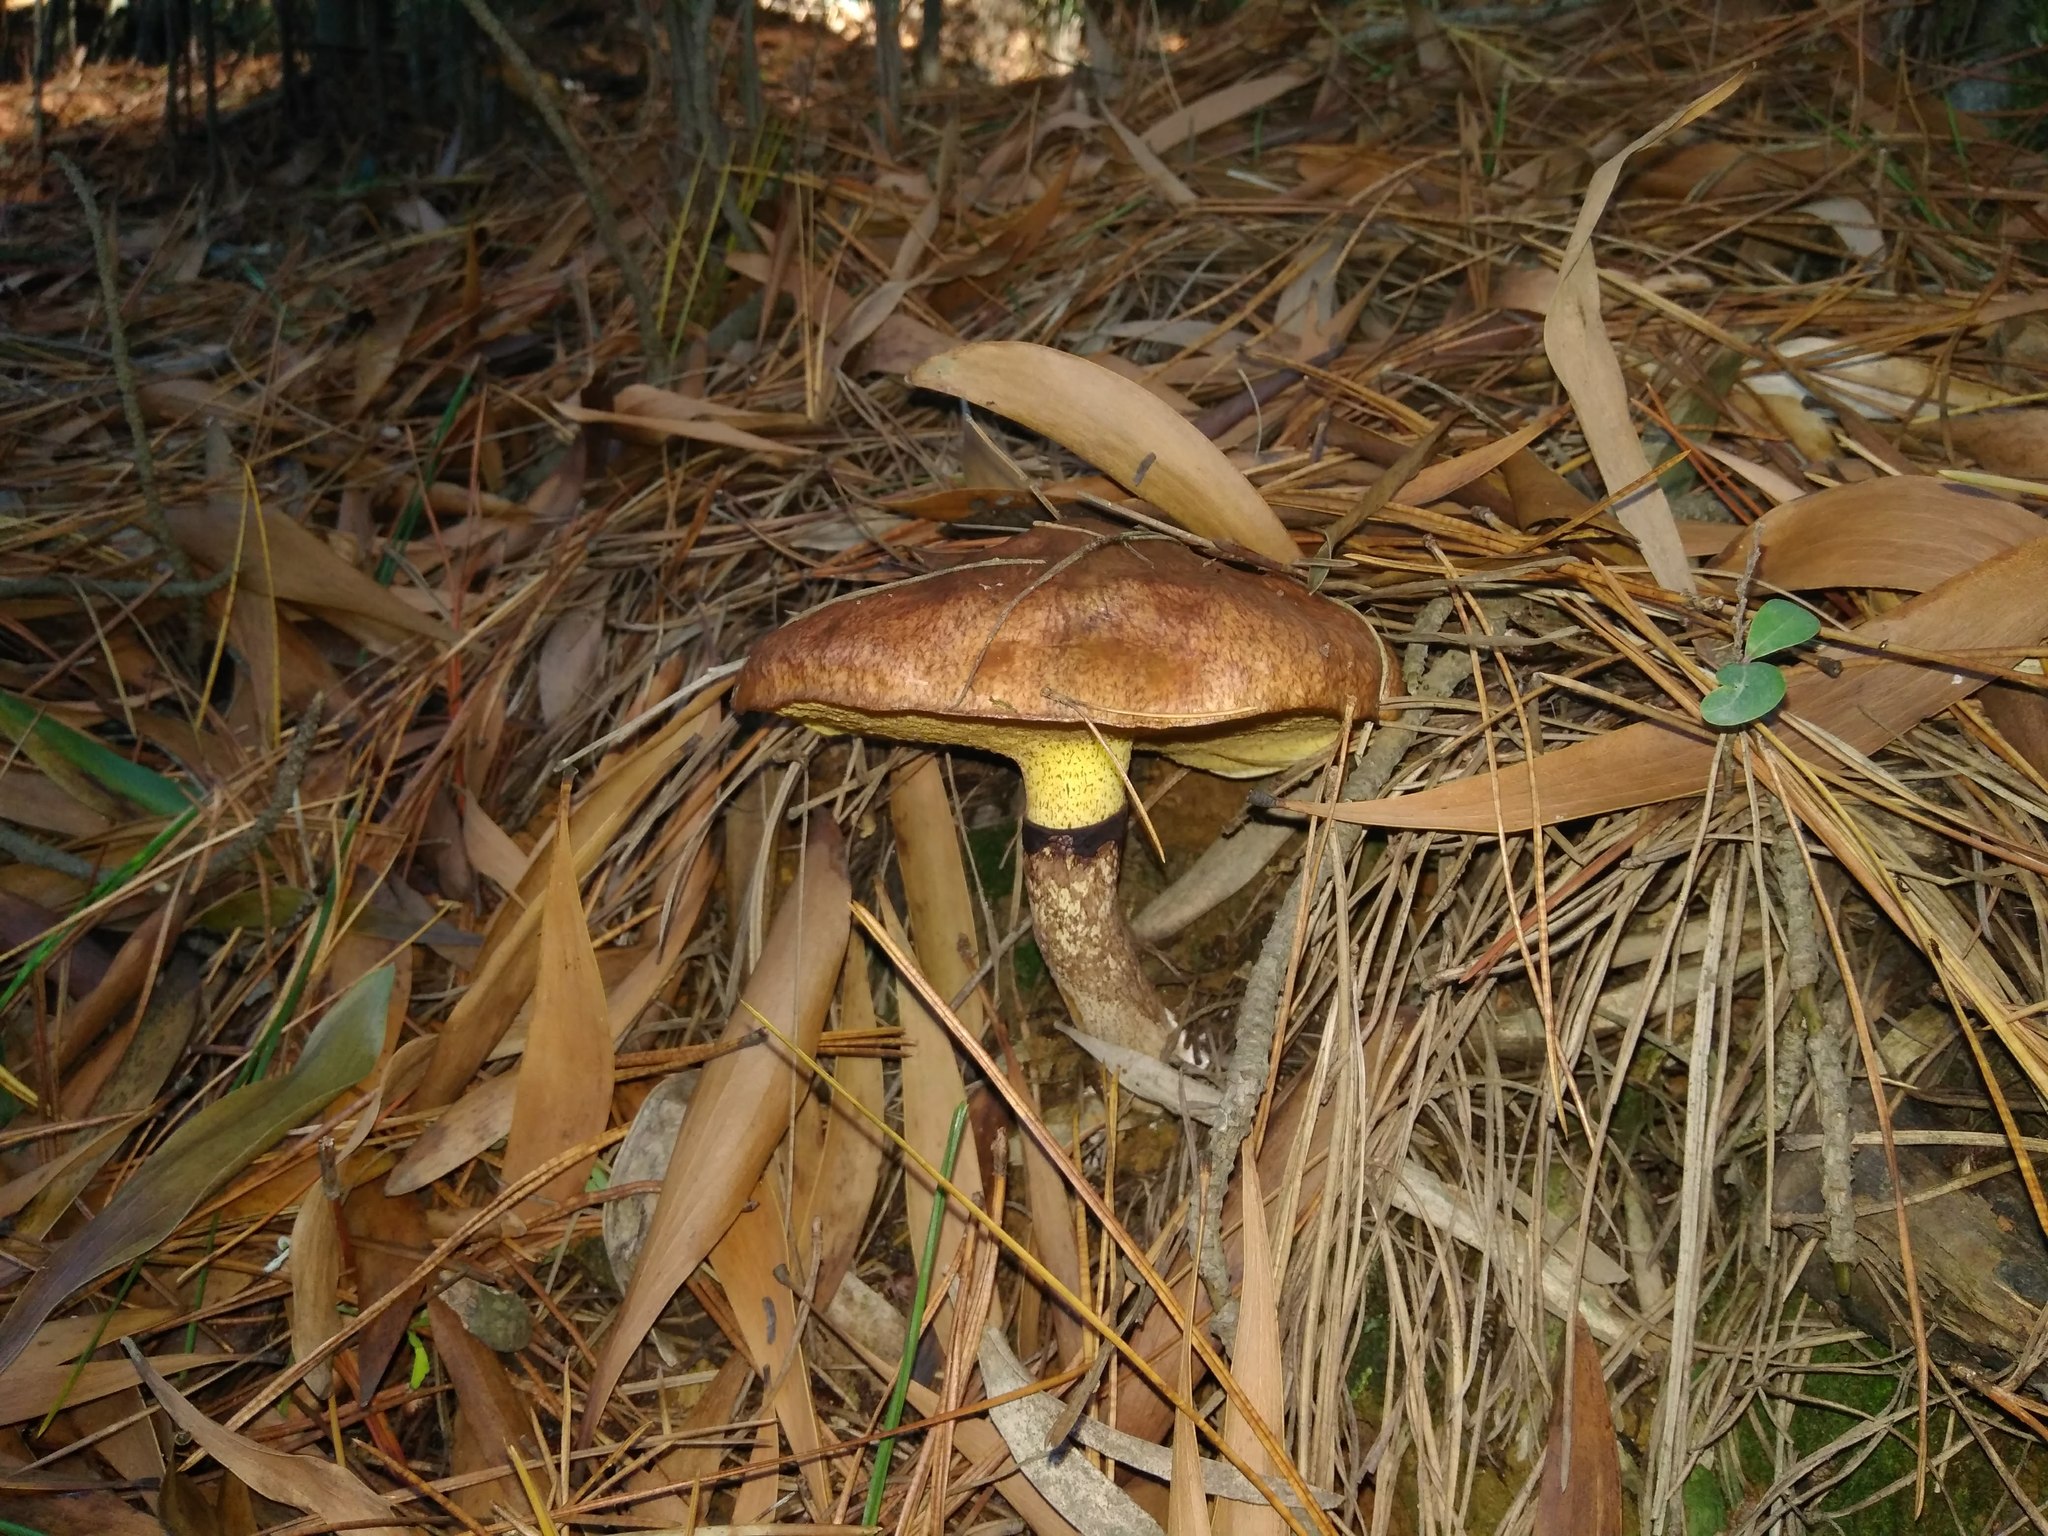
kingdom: Fungi
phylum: Basidiomycota
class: Agaricomycetes
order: Boletales
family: Suillaceae
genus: Suillus
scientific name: Suillus luteus
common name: Slippery jack
